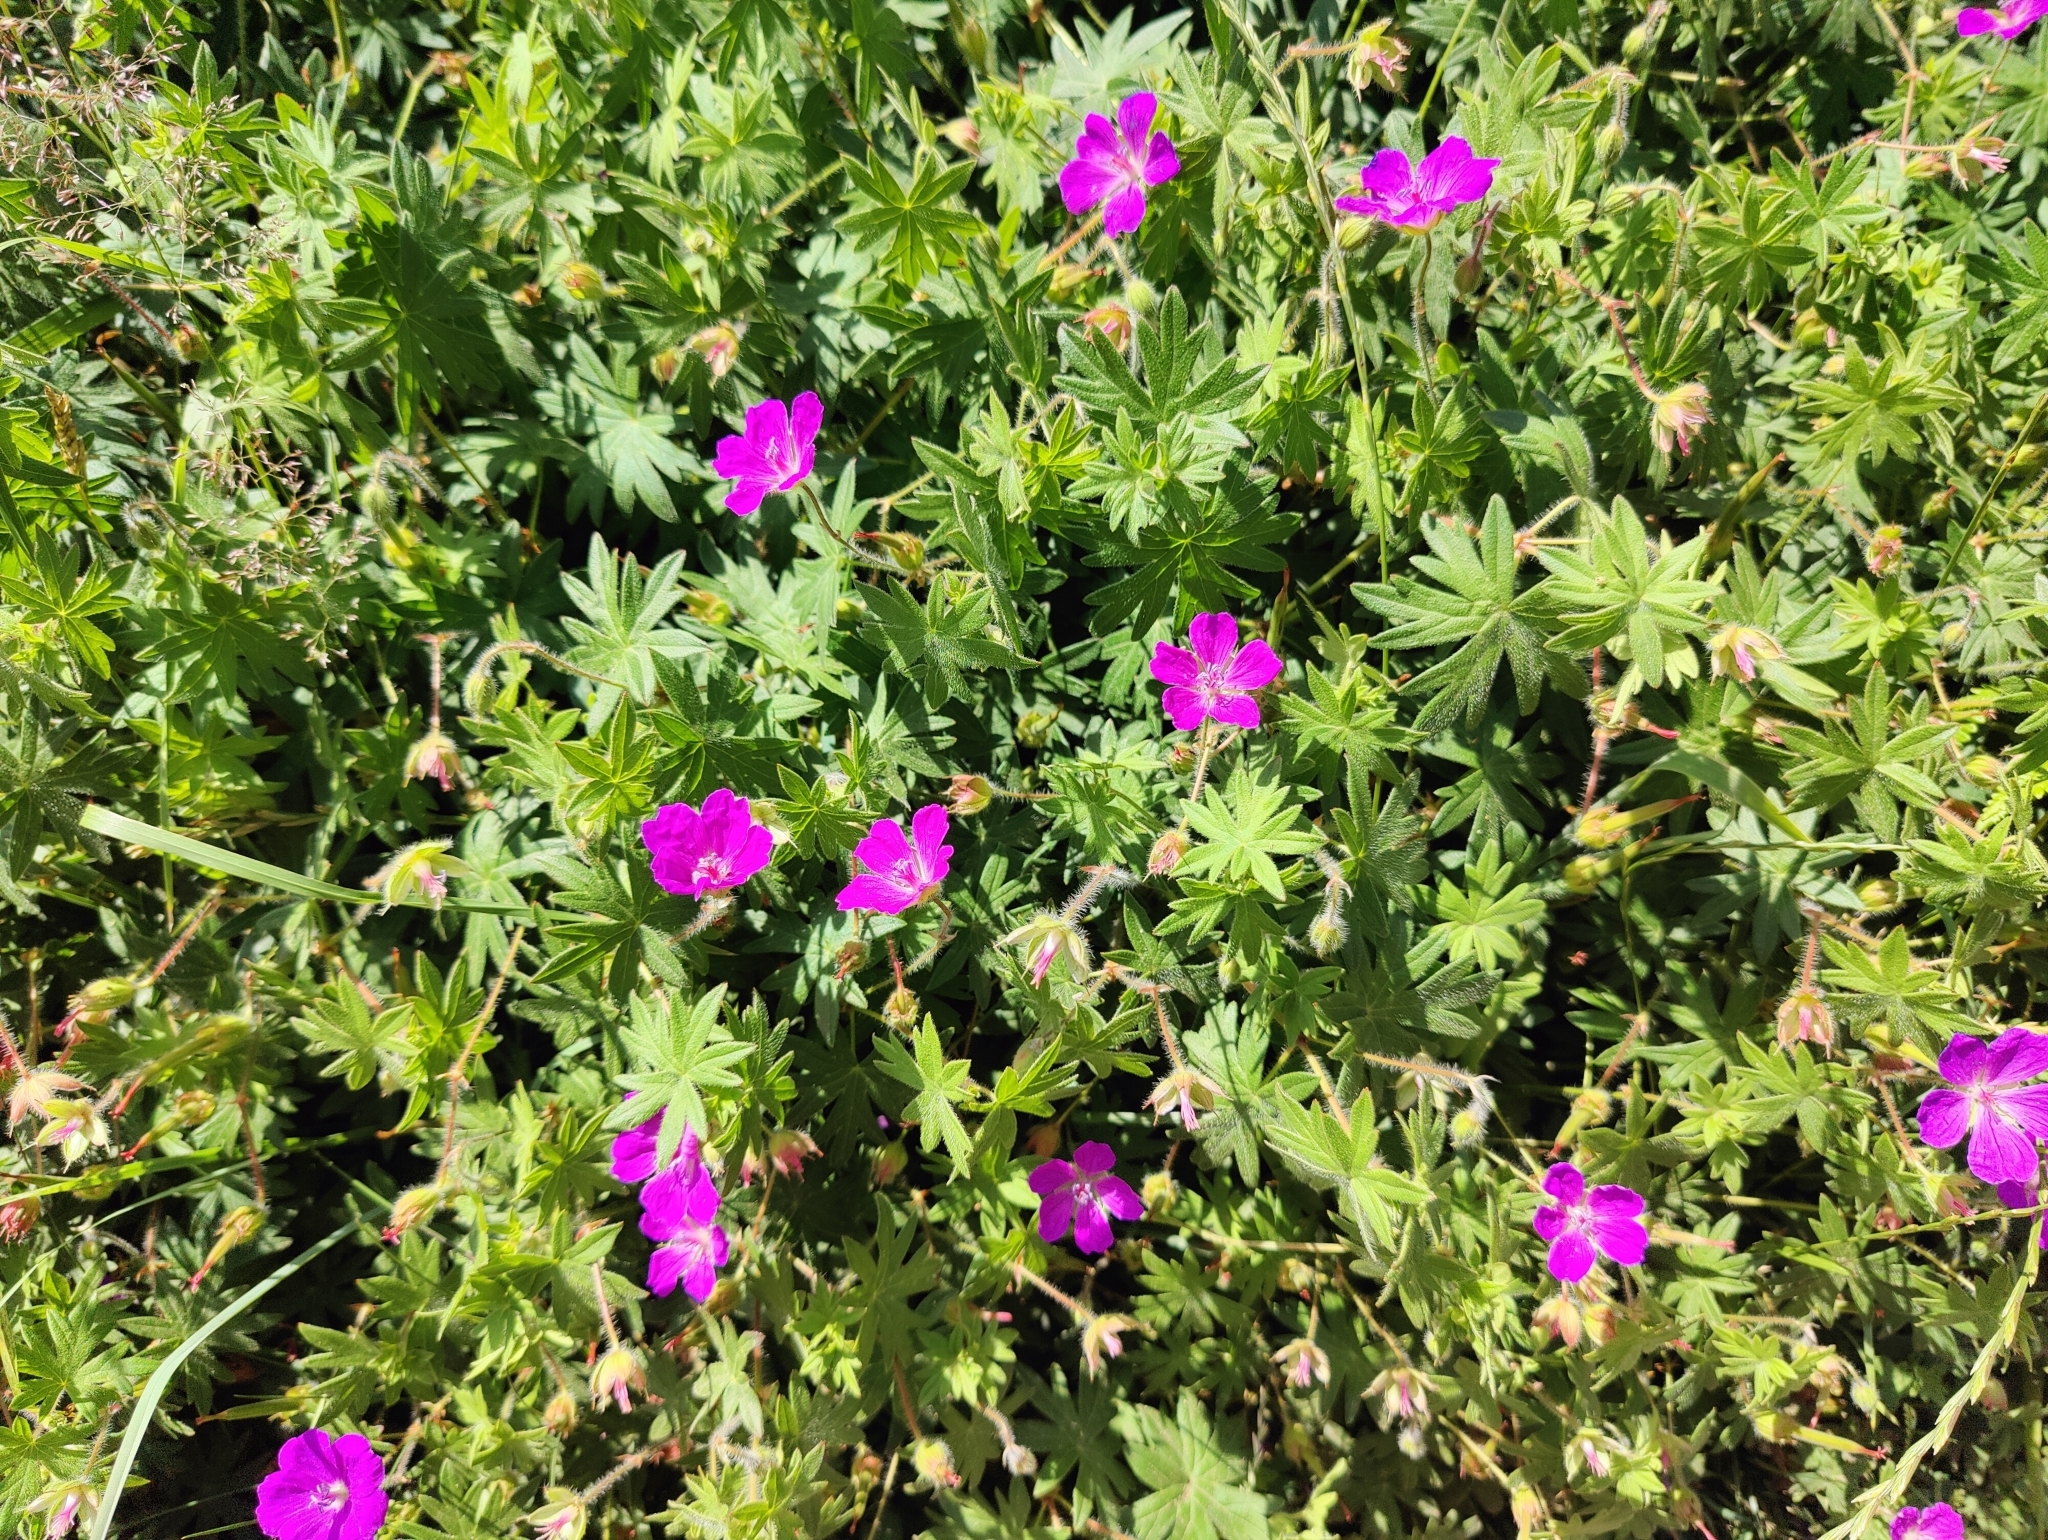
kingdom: Plantae
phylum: Tracheophyta
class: Magnoliopsida
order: Geraniales
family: Geraniaceae
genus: Geranium
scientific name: Geranium sanguineum
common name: Bloody crane's-bill
